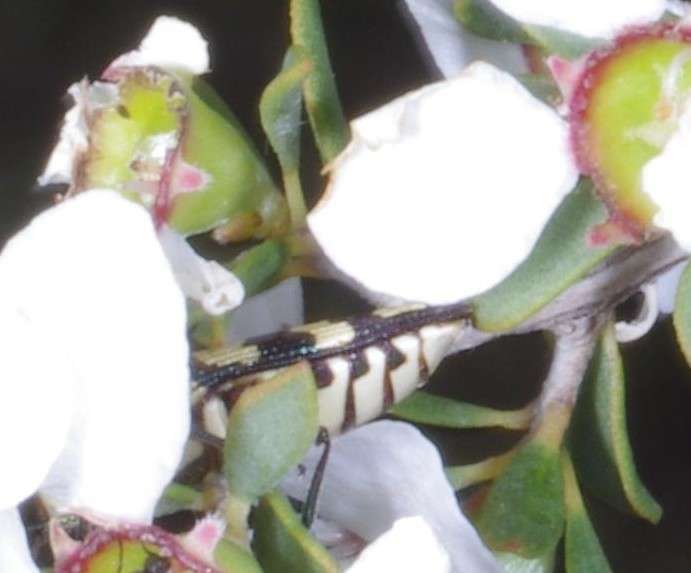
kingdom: Animalia
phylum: Arthropoda
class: Insecta
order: Coleoptera
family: Buprestidae
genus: Castiarina
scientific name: Castiarina decemmaculata
